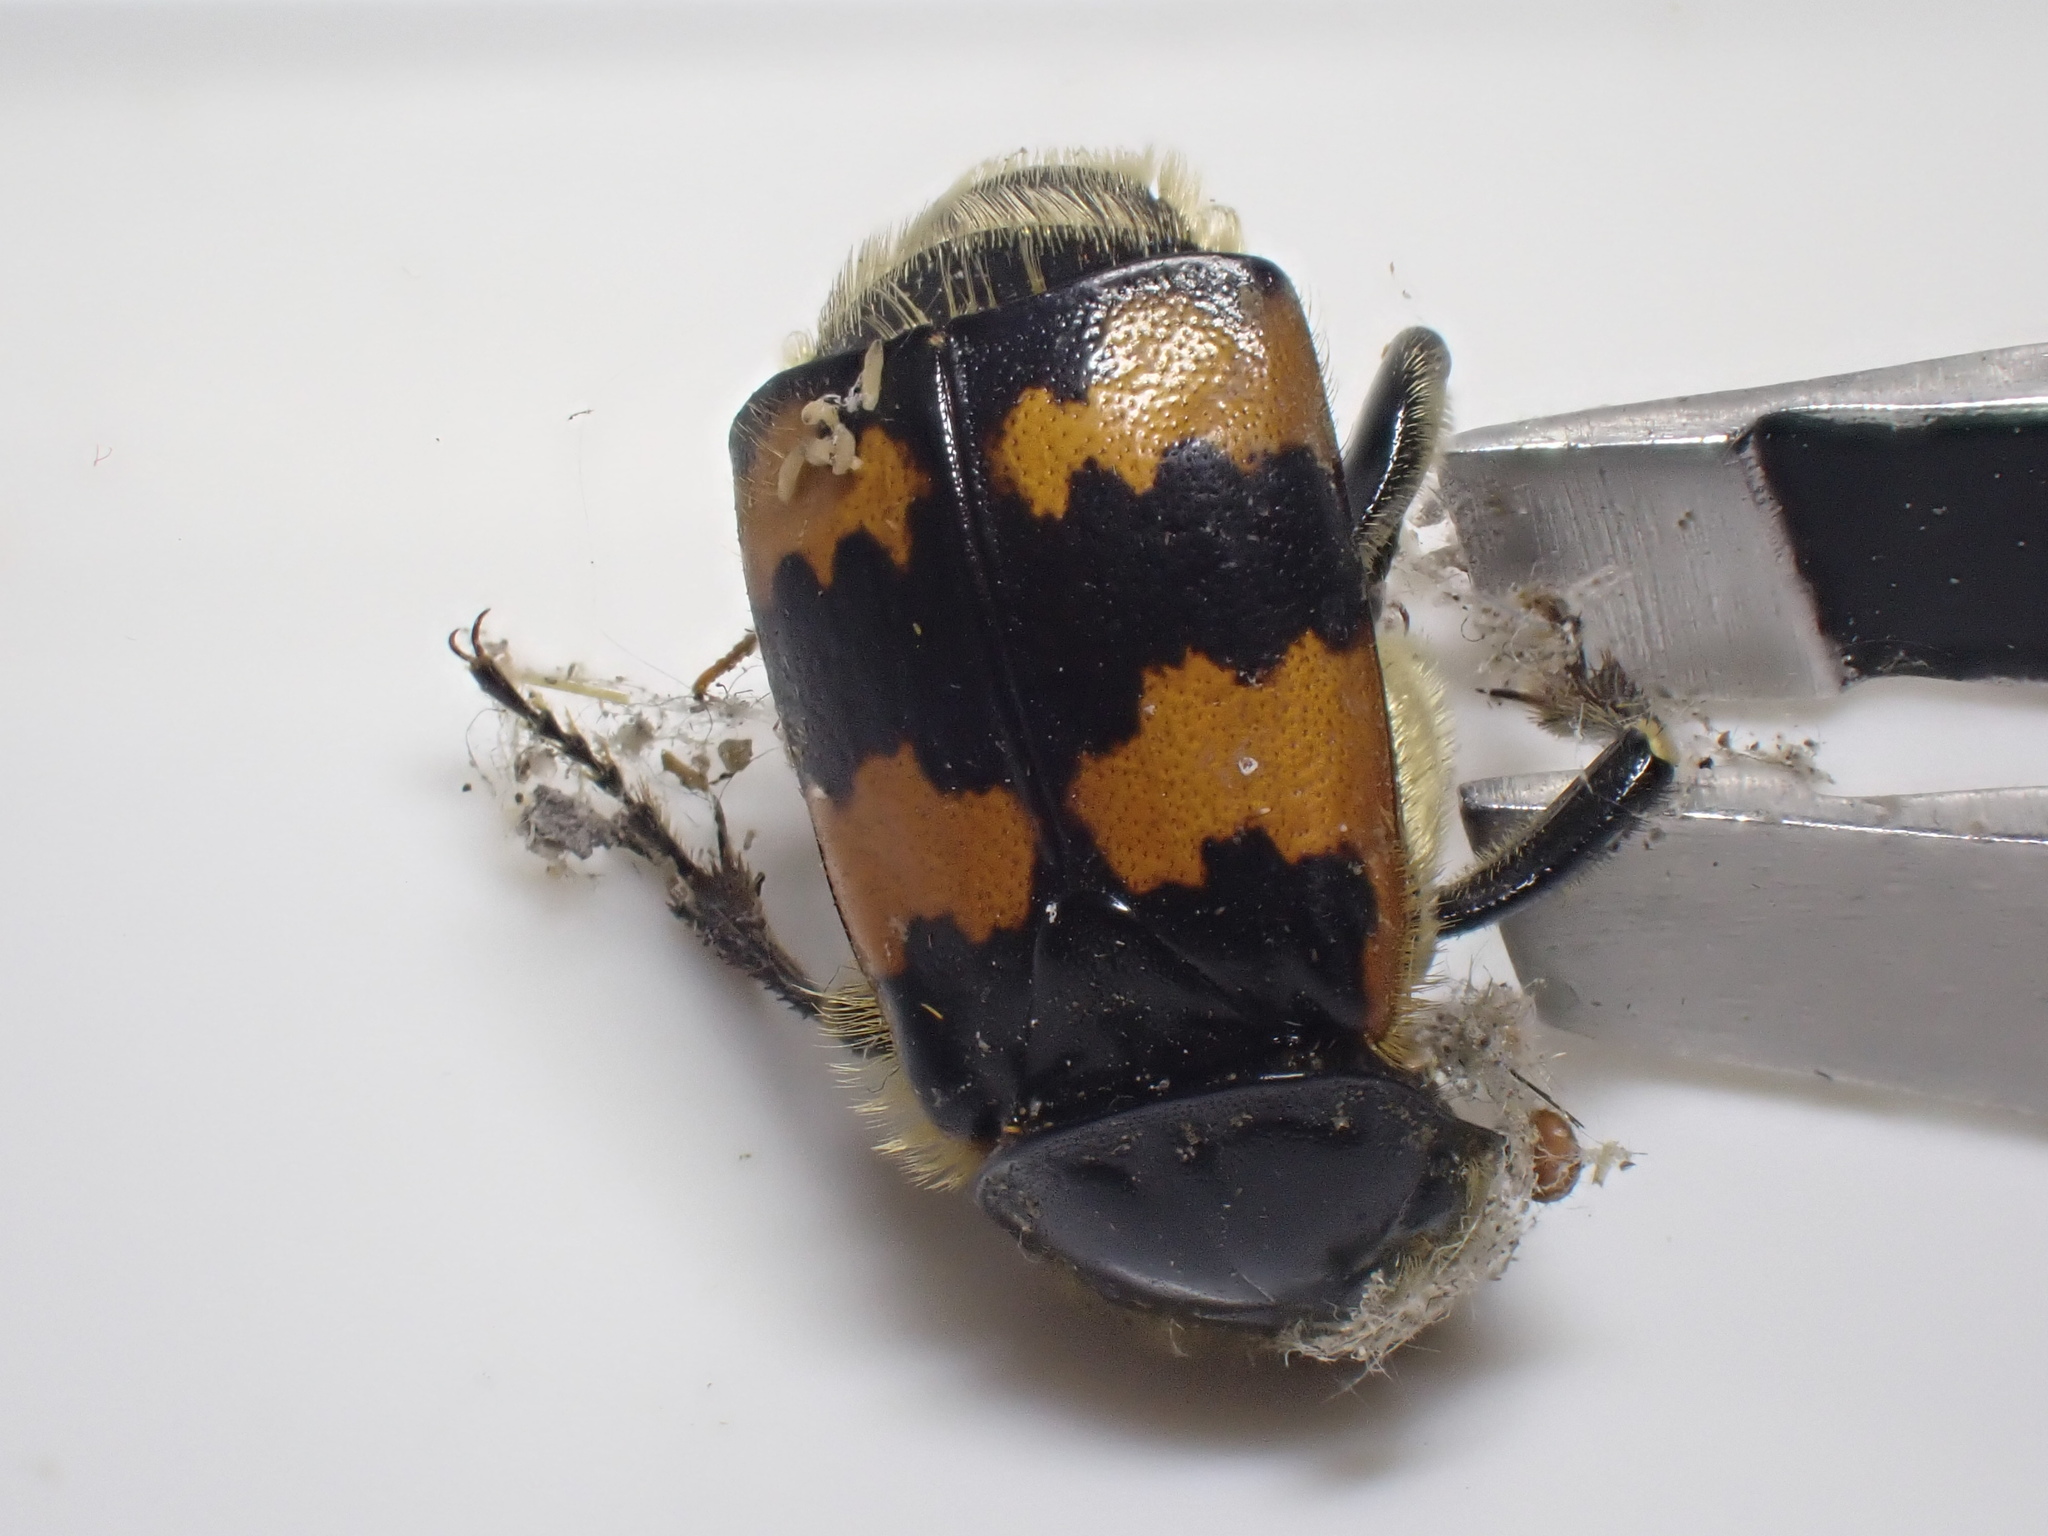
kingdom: Animalia
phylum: Arthropoda
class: Insecta
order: Coleoptera
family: Staphylinidae
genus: Nicrophorus
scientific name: Nicrophorus vespillo
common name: Common burying beetle
